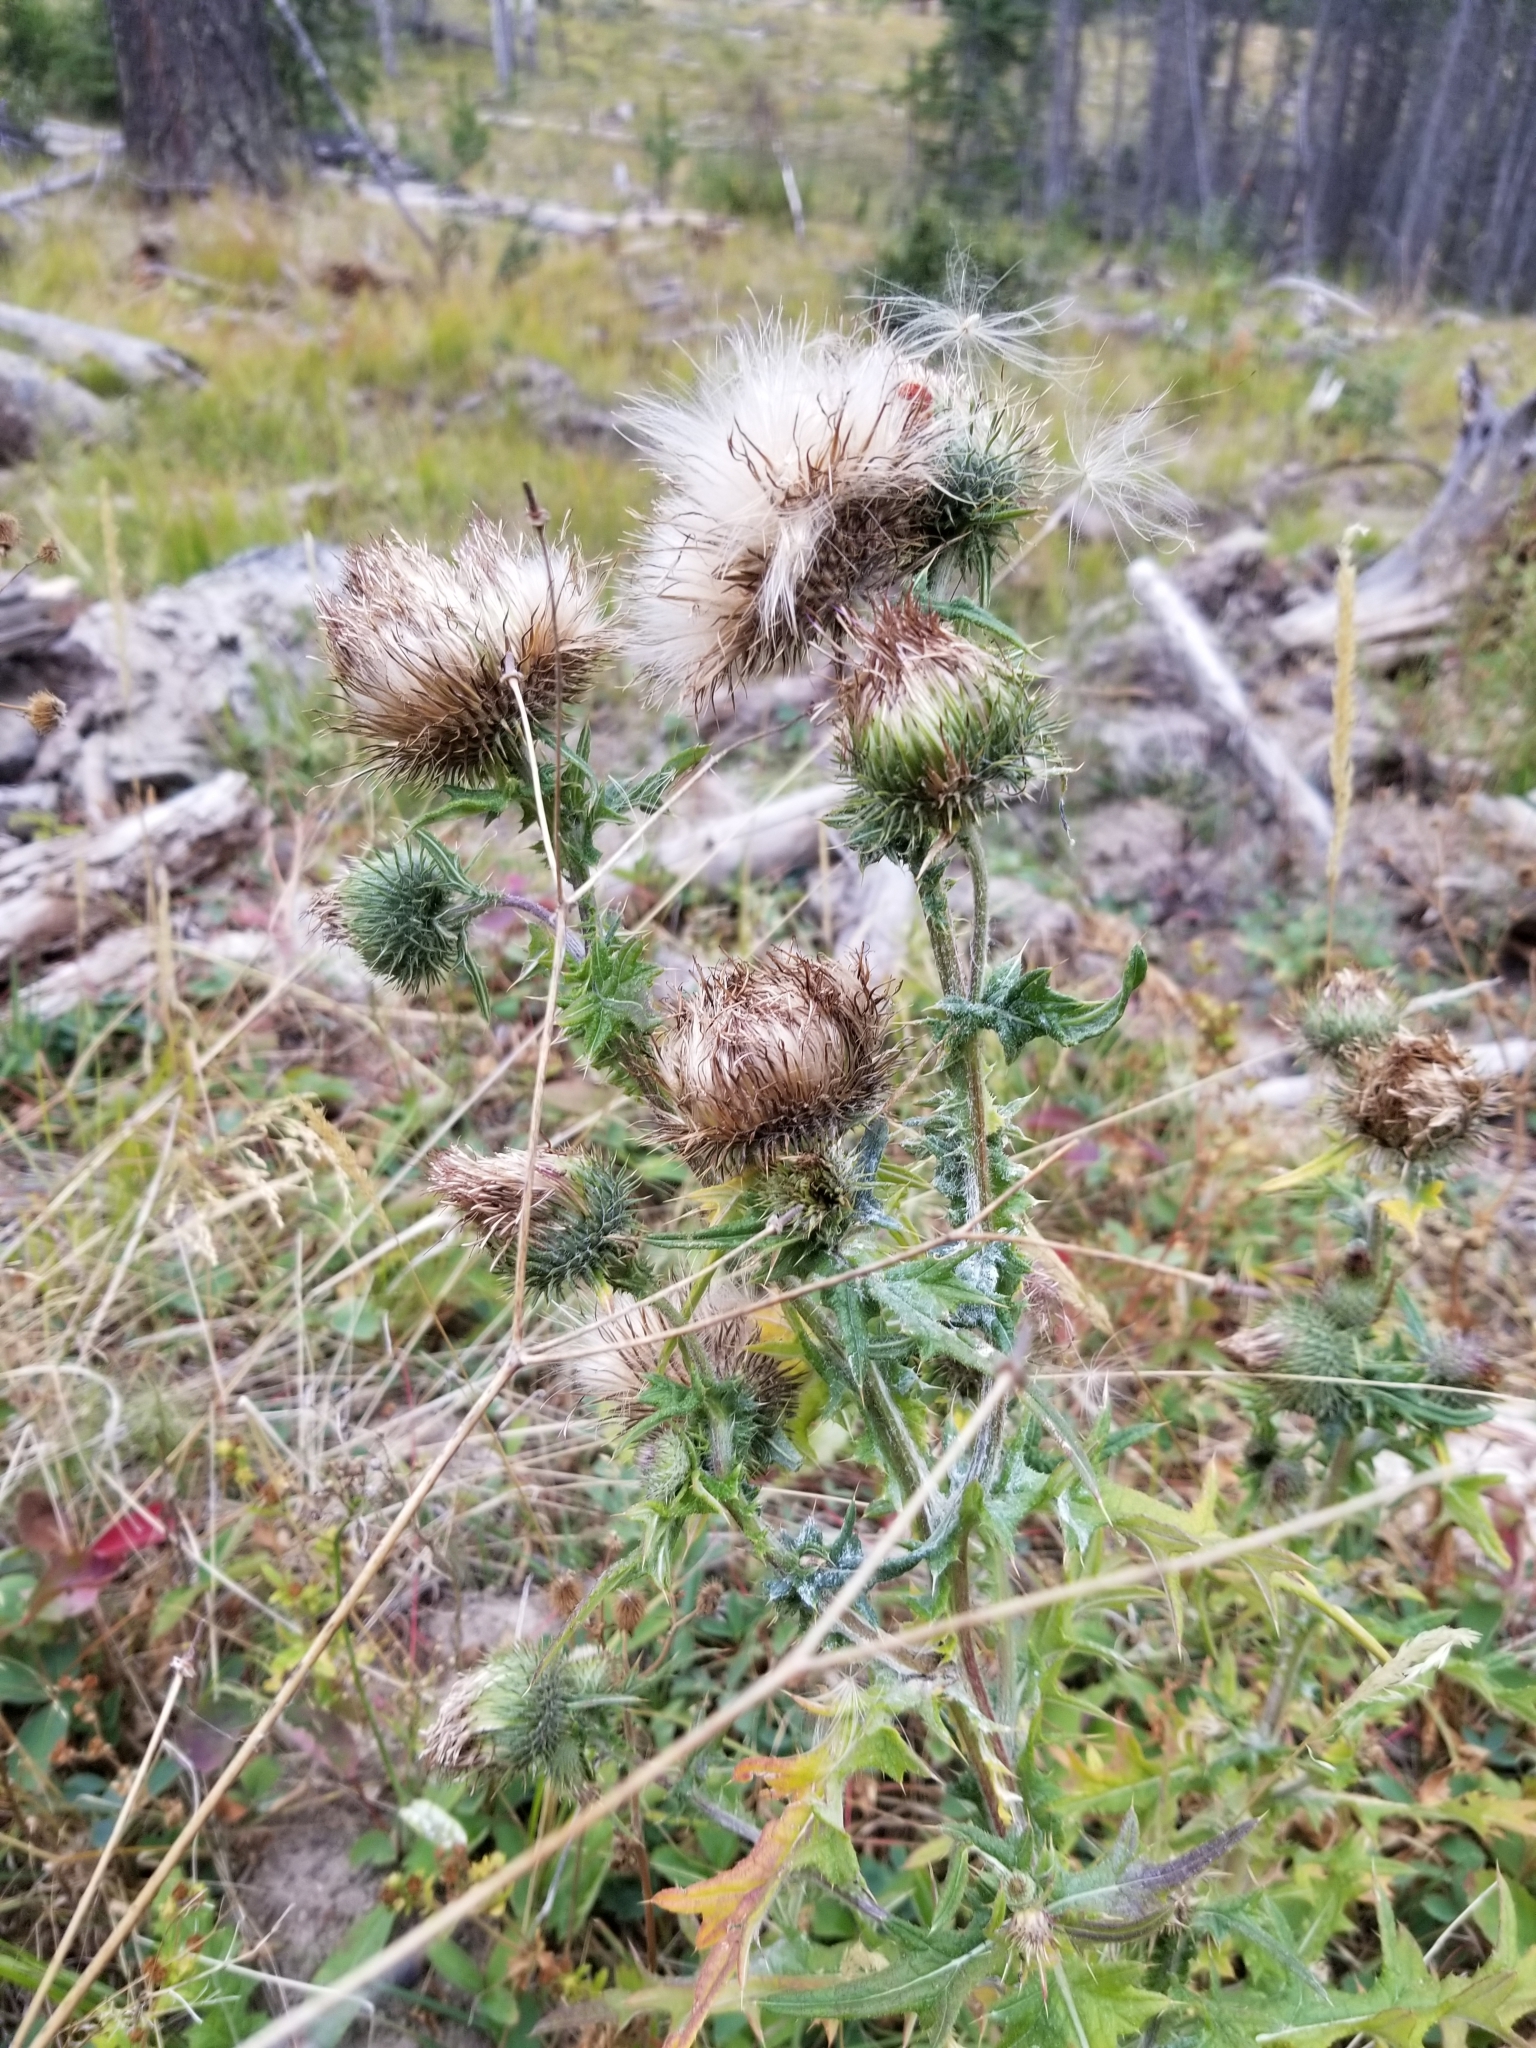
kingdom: Plantae
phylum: Tracheophyta
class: Magnoliopsida
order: Asterales
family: Asteraceae
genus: Cirsium
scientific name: Cirsium vulgare
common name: Bull thistle
